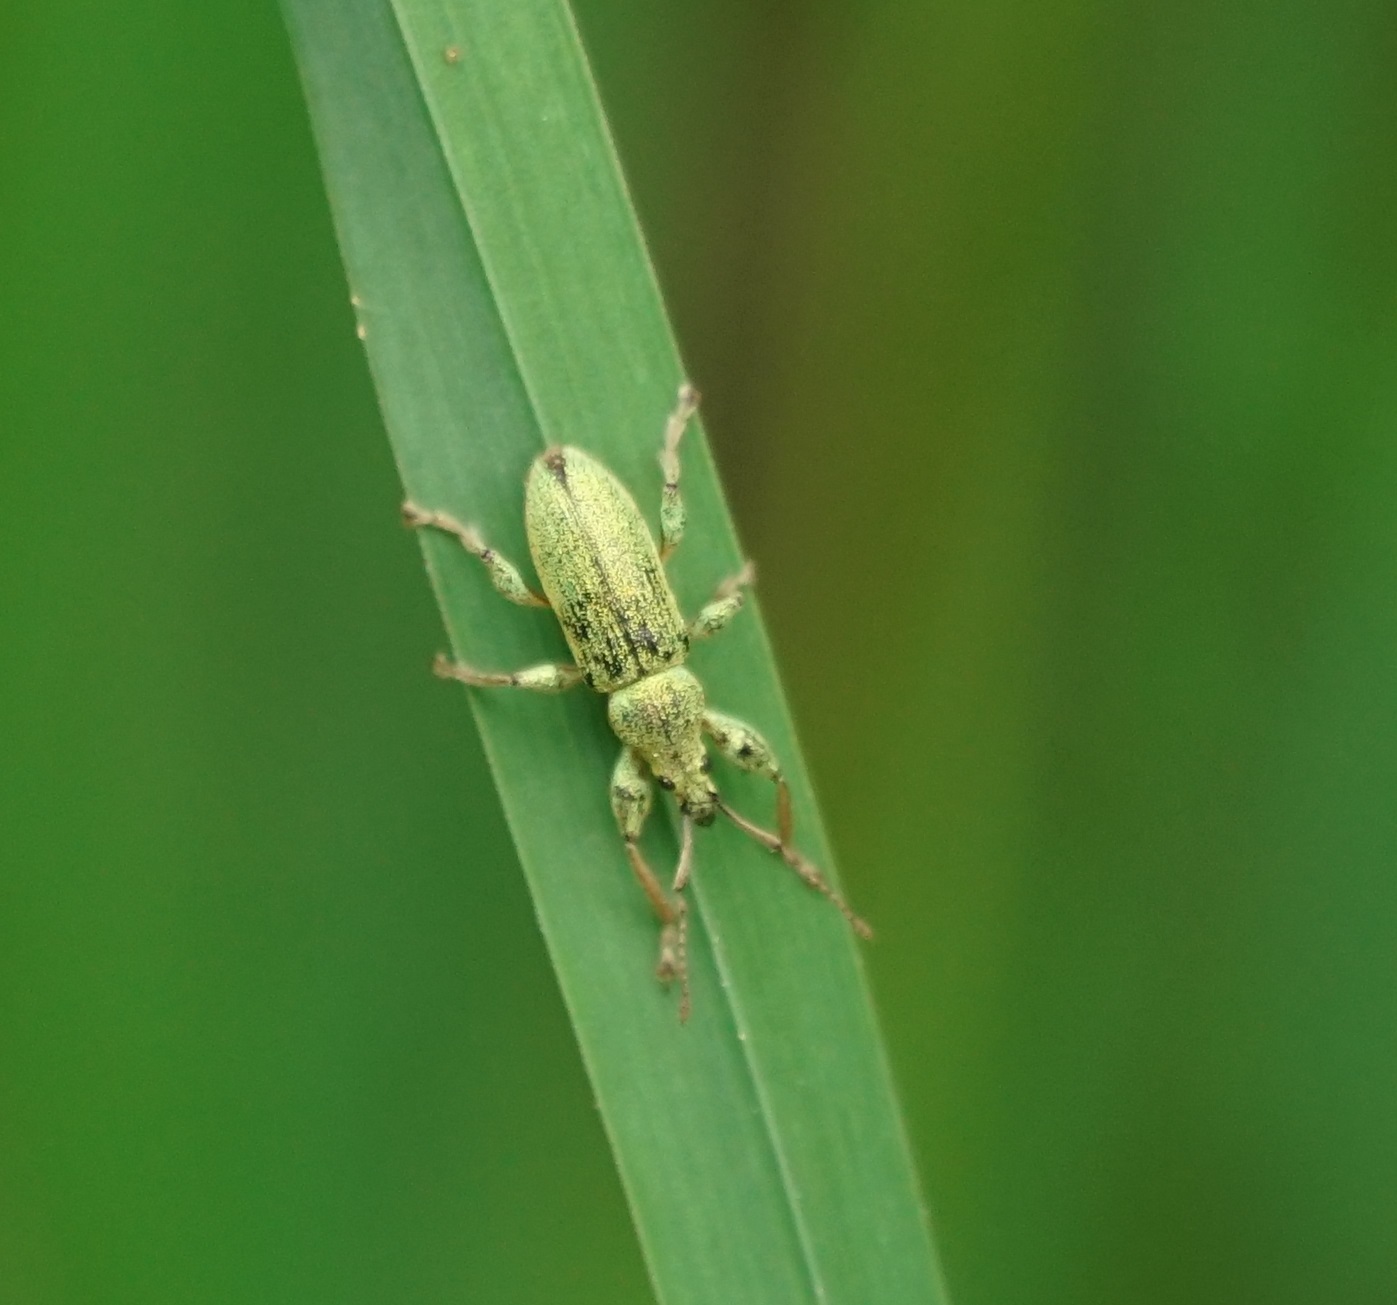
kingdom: Animalia
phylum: Arthropoda
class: Insecta
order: Coleoptera
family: Curculionidae
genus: Phyllobius
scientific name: Phyllobius arborator
